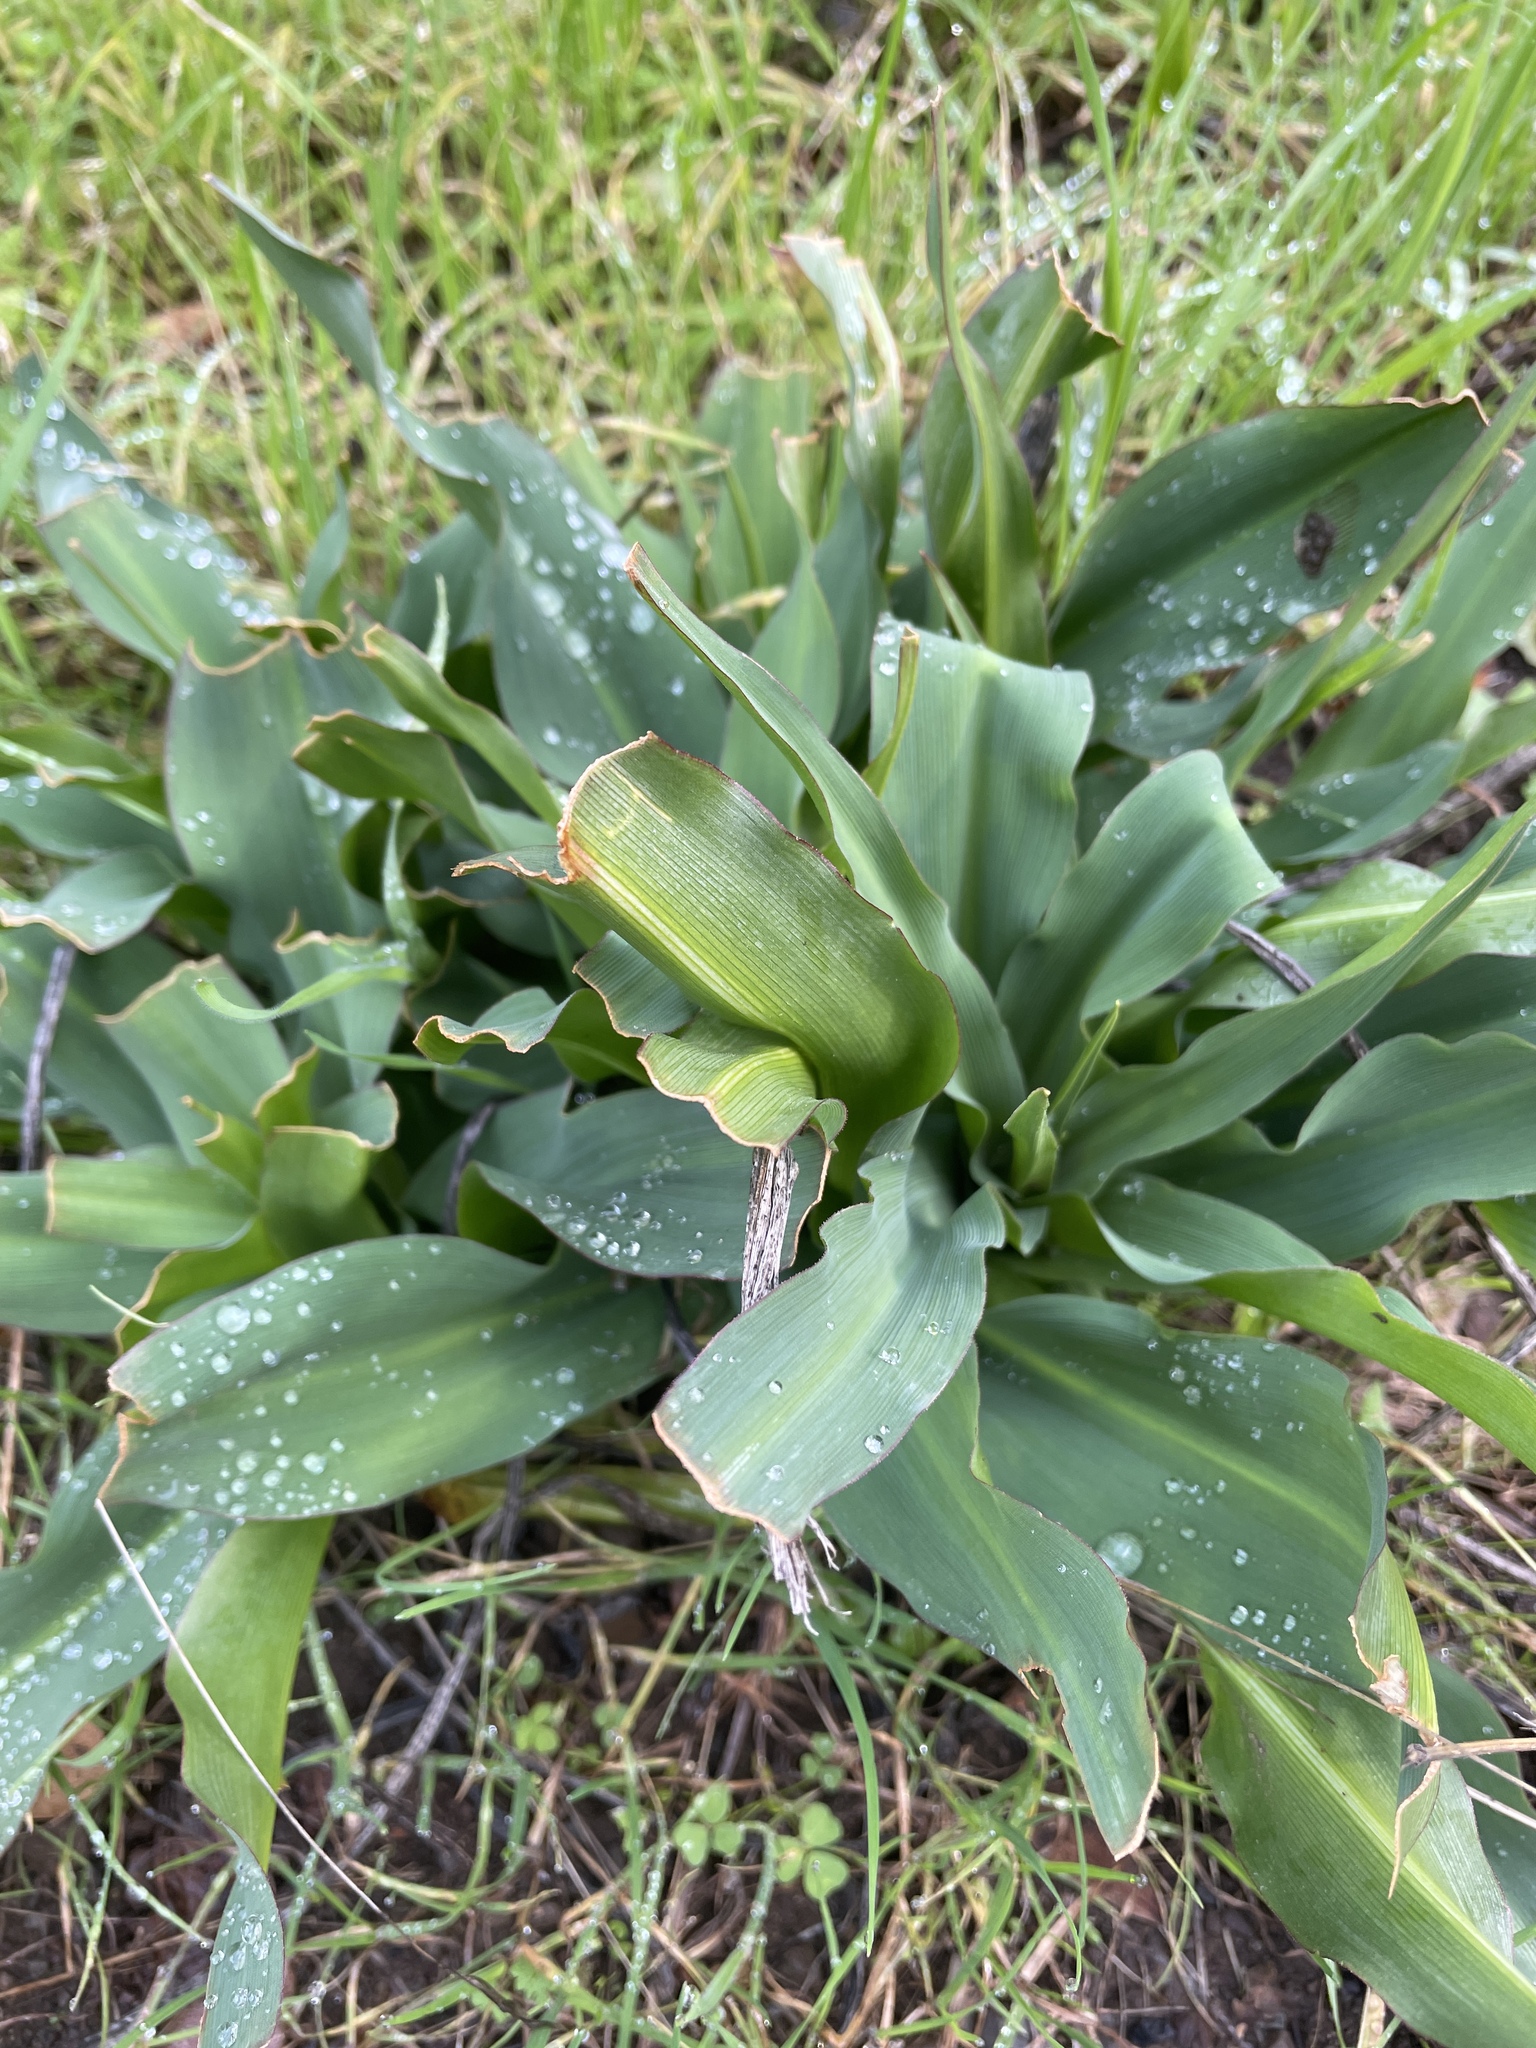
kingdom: Plantae
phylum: Tracheophyta
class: Liliopsida
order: Asparagales
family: Asparagaceae
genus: Chlorogalum
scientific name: Chlorogalum pomeridianum
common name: Amole
